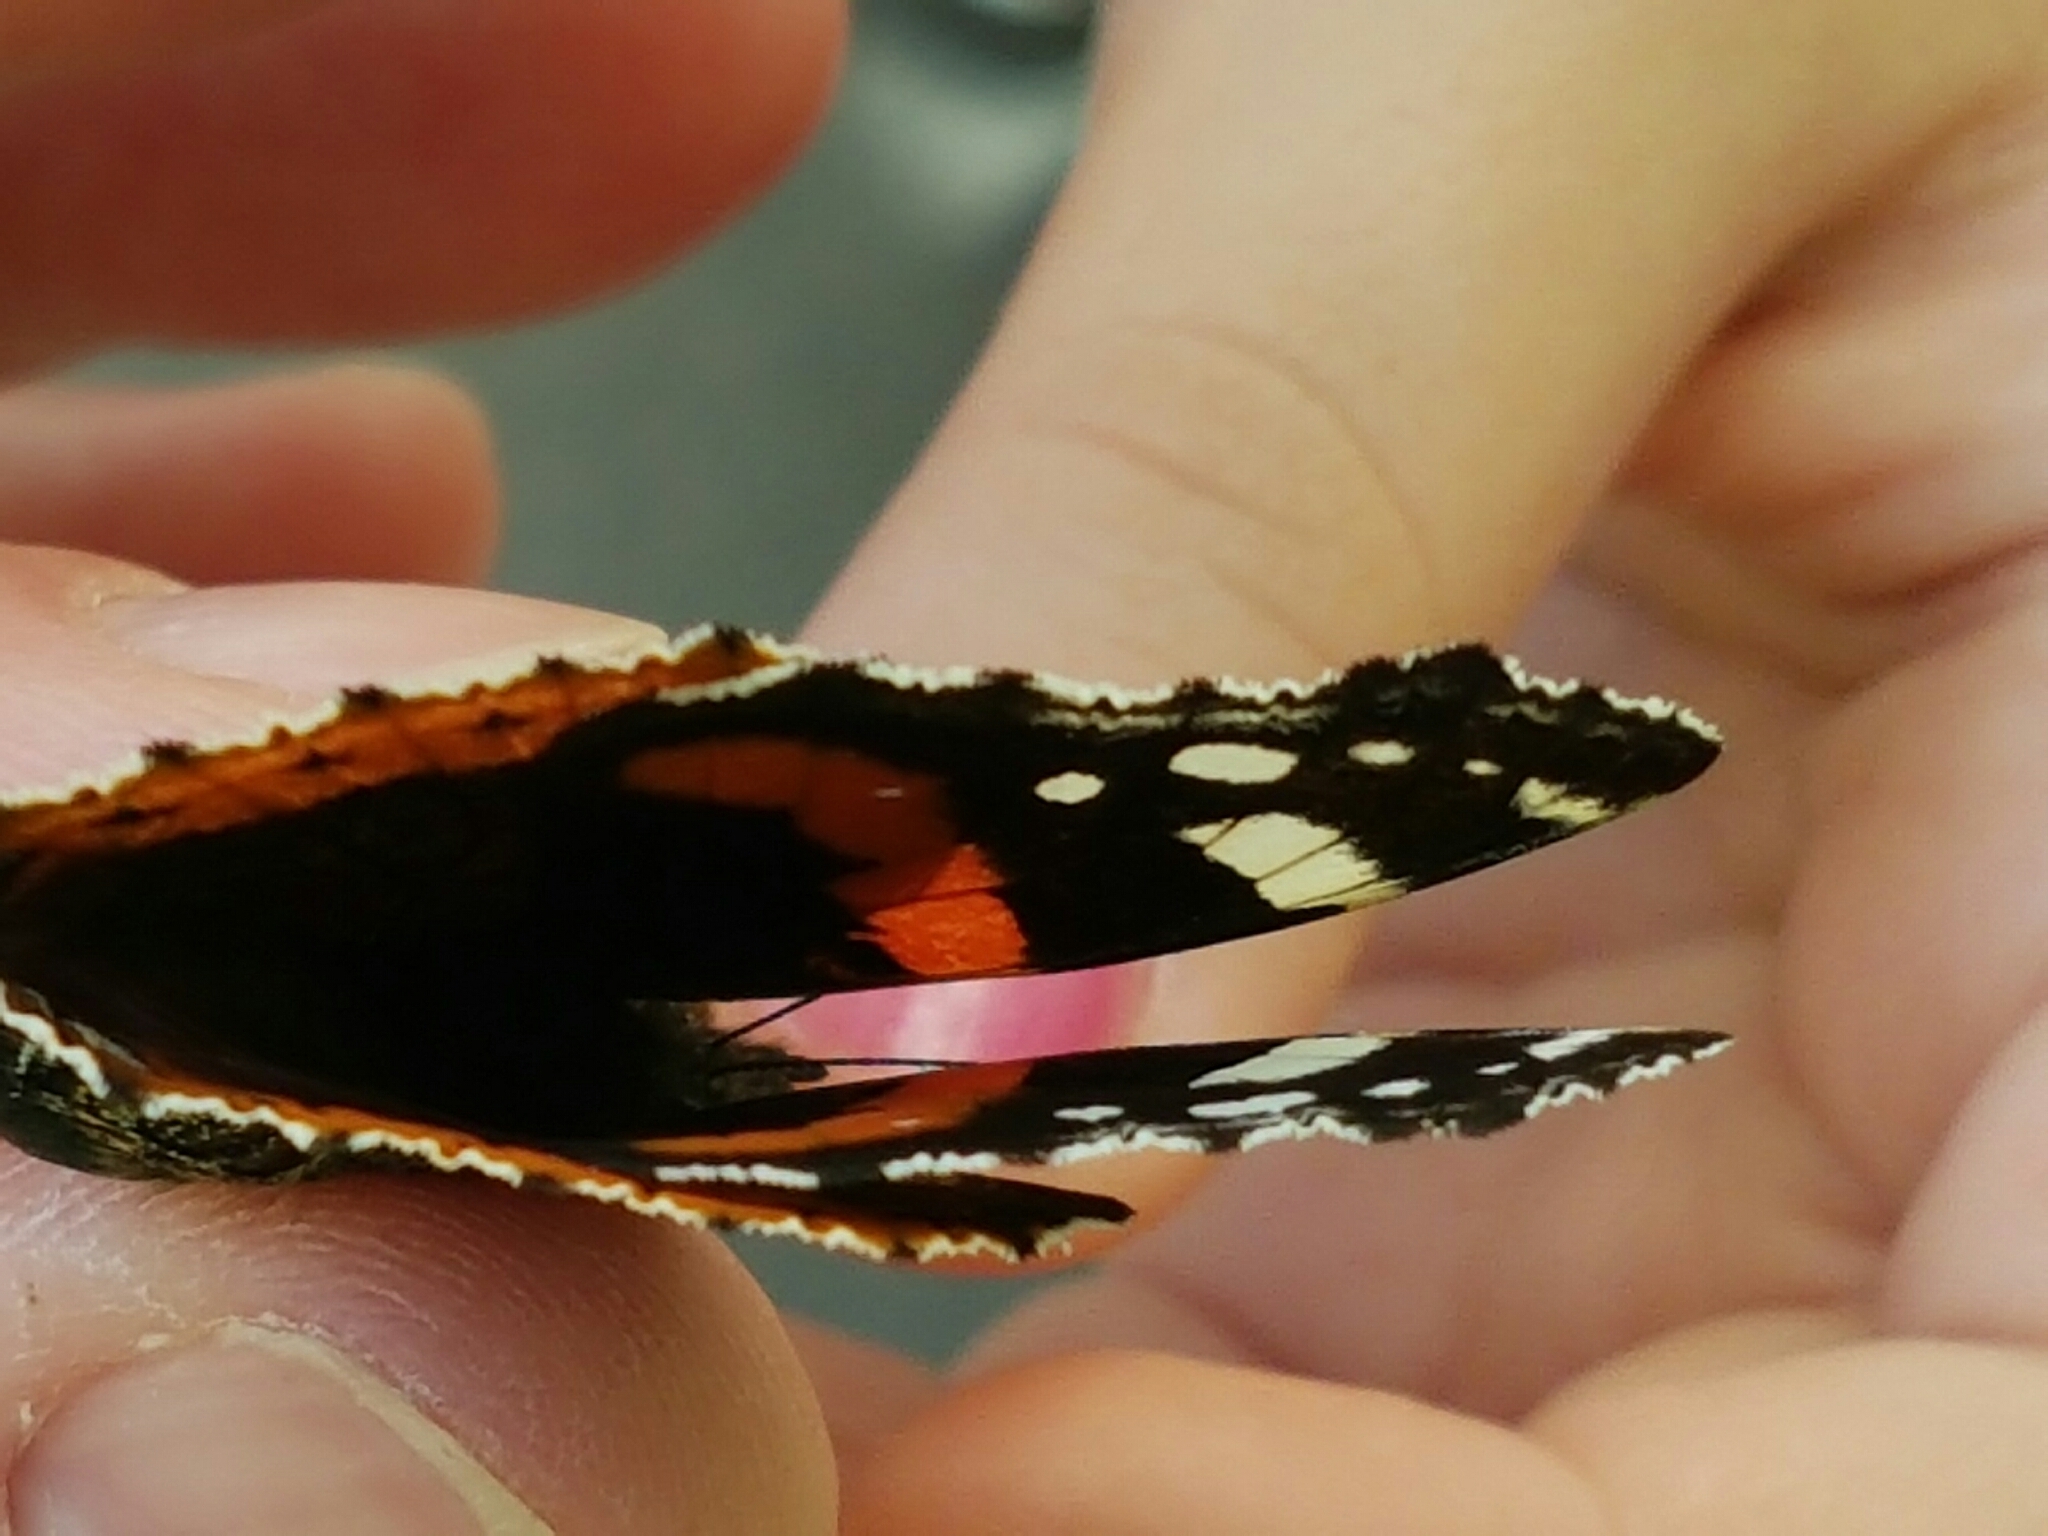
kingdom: Animalia
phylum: Arthropoda
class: Insecta
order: Lepidoptera
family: Nymphalidae
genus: Vanessa
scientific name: Vanessa atalanta
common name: Red admiral
